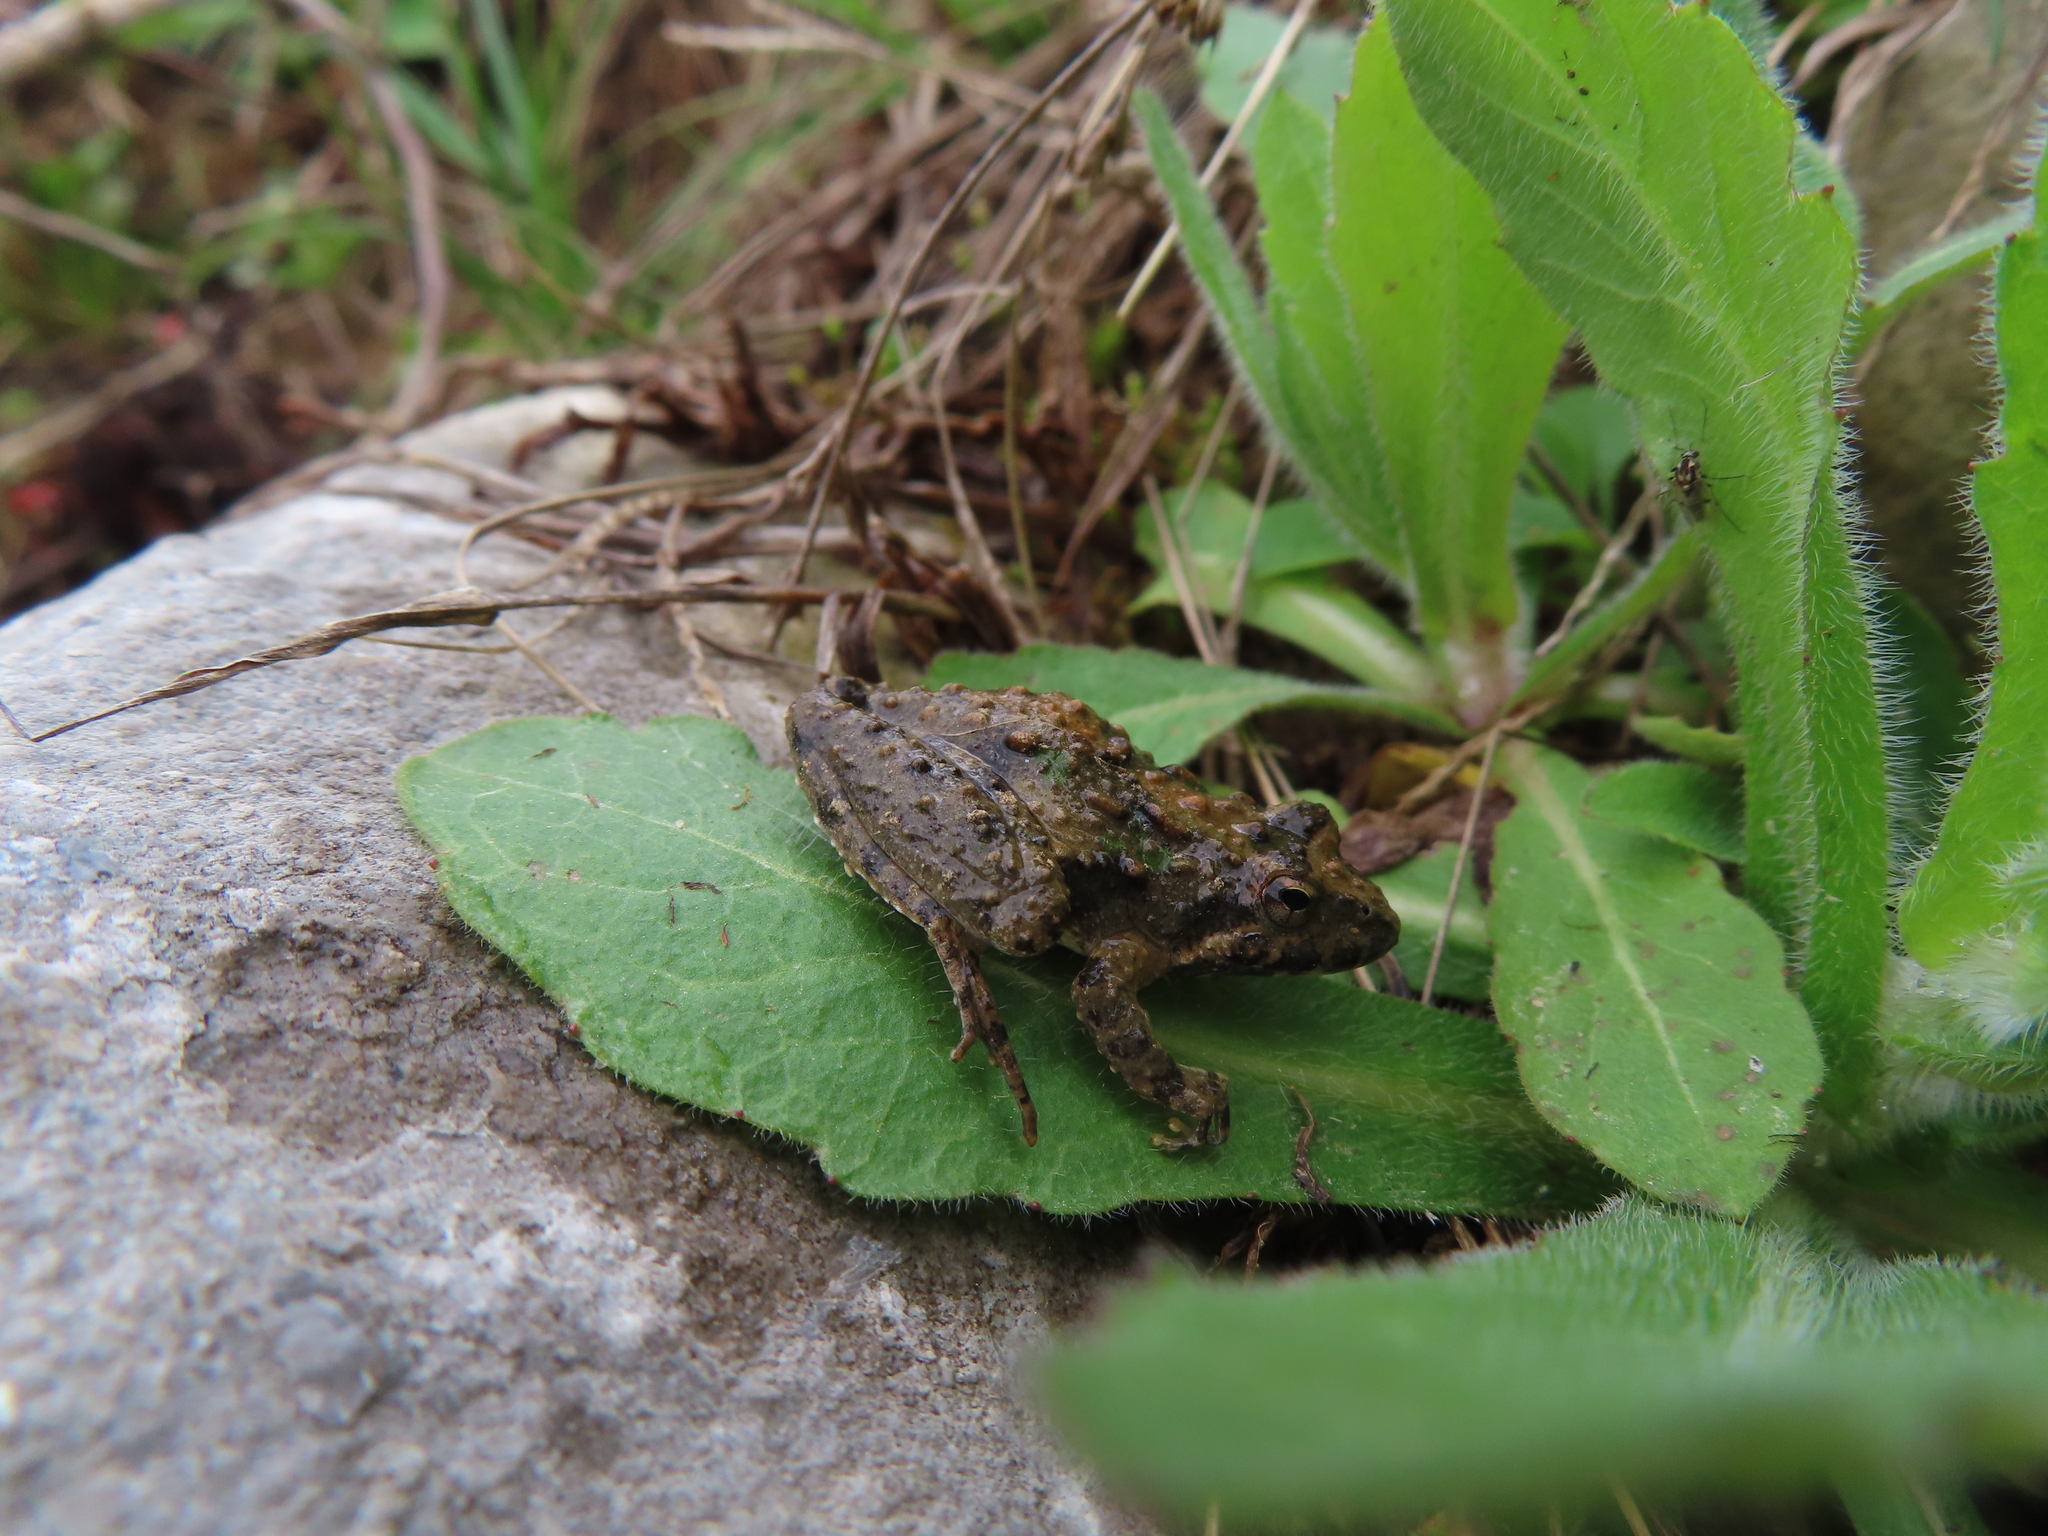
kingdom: Animalia
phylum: Chordata
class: Amphibia
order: Anura
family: Hylidae
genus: Acris
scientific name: Acris blanchardi
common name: Blanchard's cricket frog
